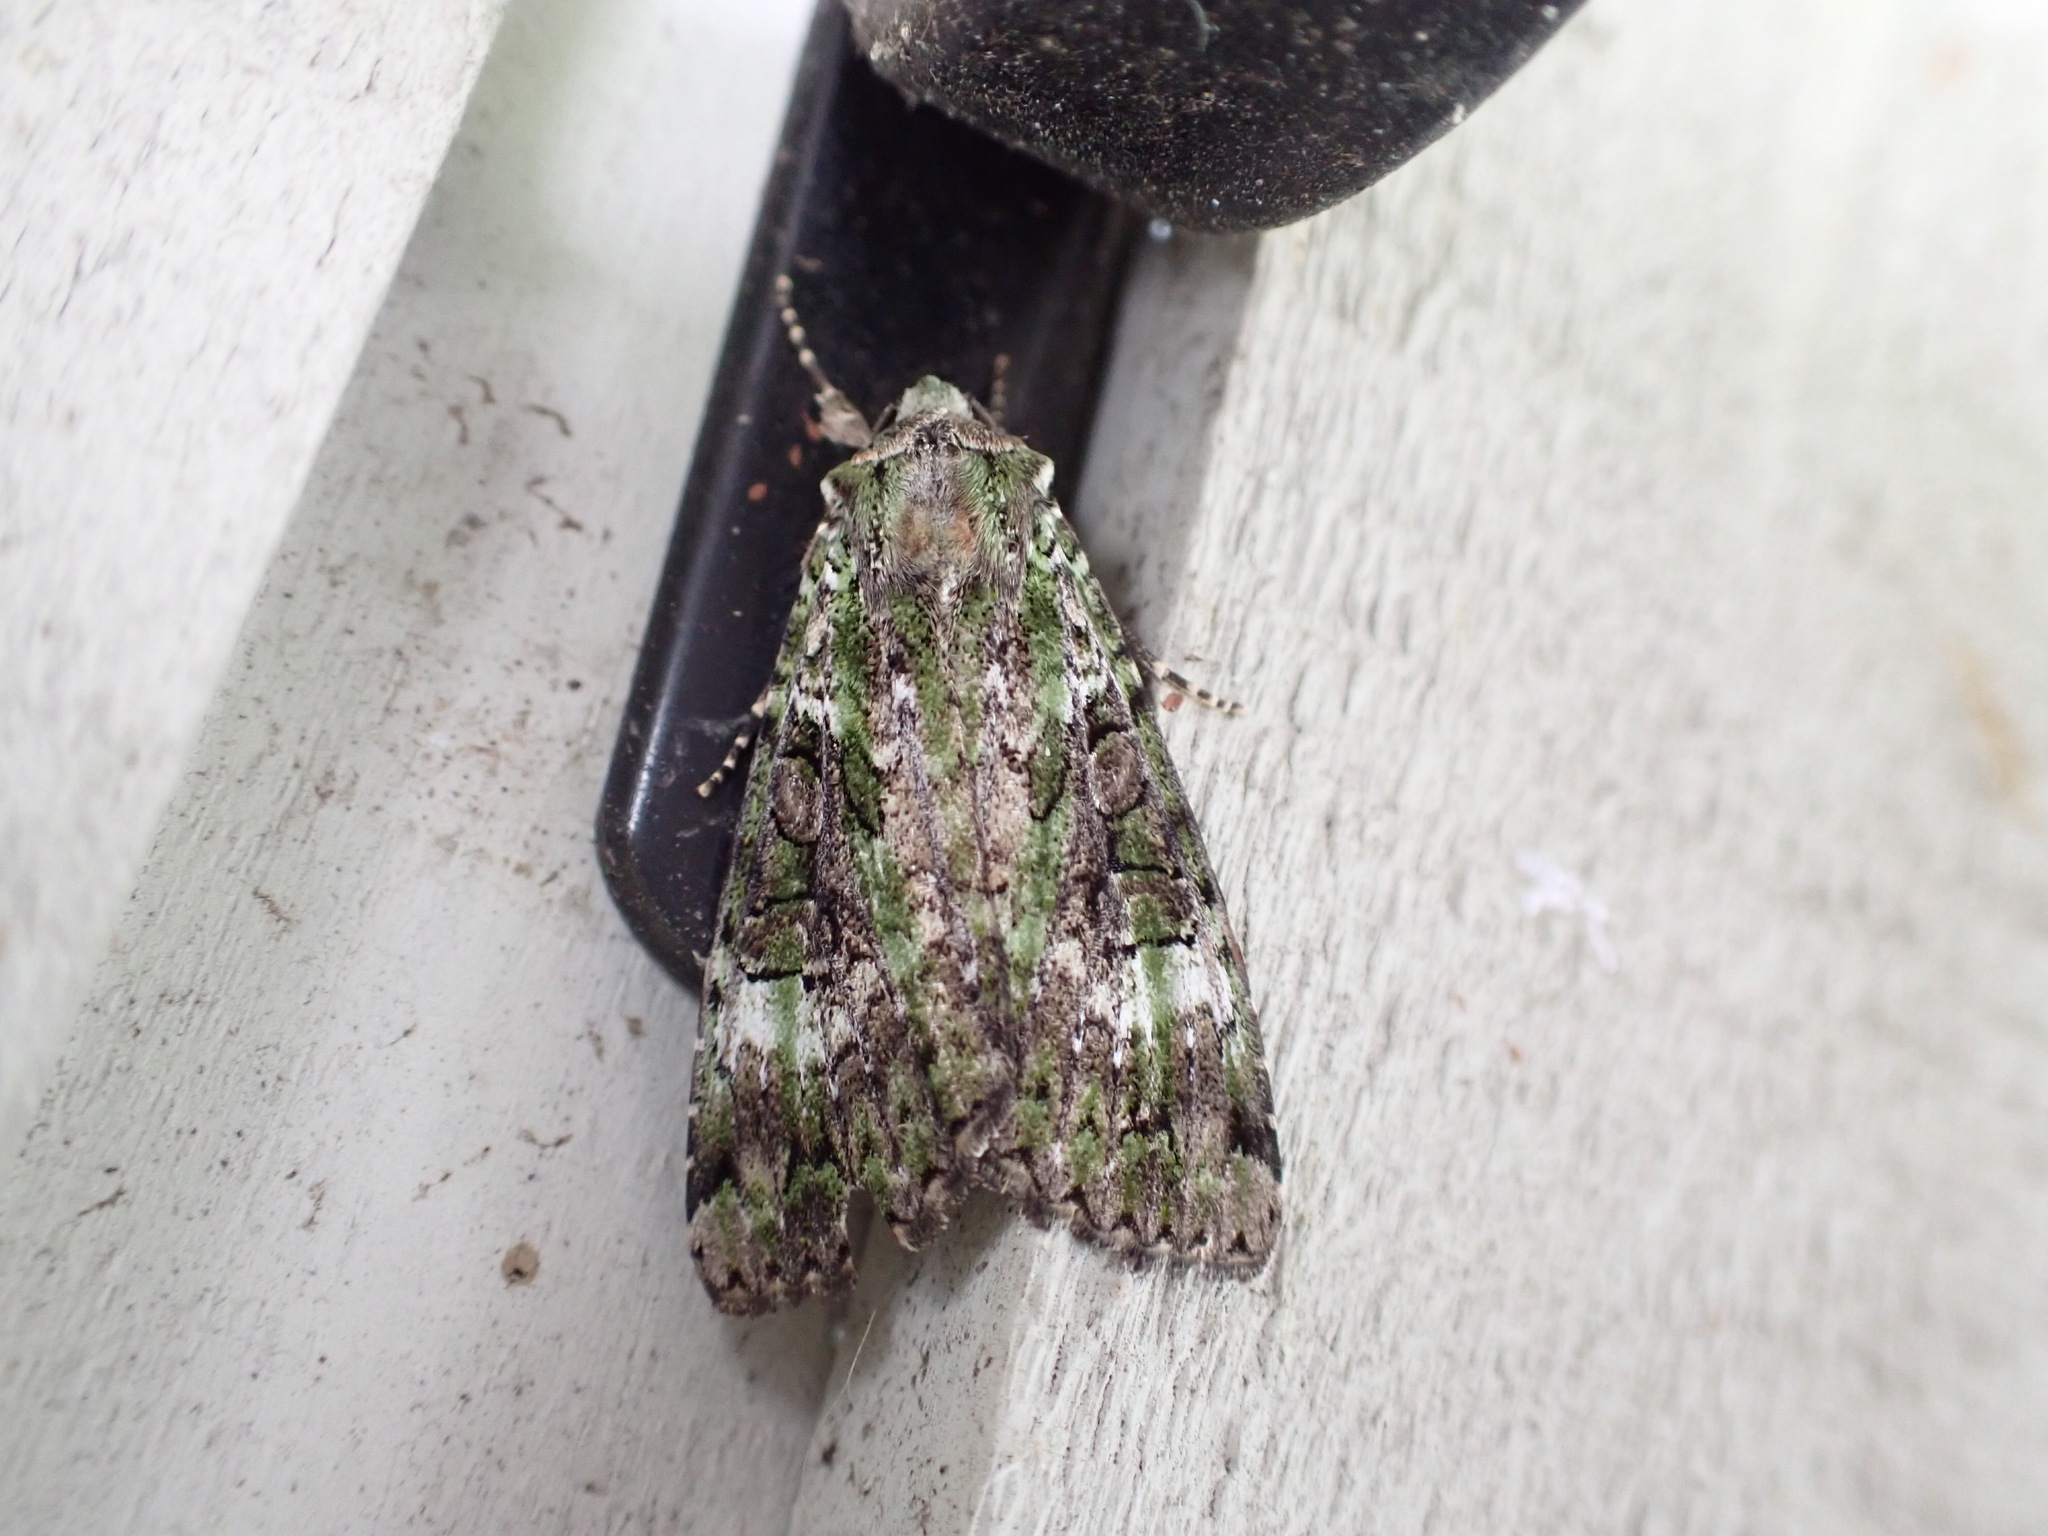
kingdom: Animalia
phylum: Arthropoda
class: Insecta
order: Lepidoptera
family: Noctuidae
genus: Anaplectoides
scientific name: Anaplectoides prasina
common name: Green arches
